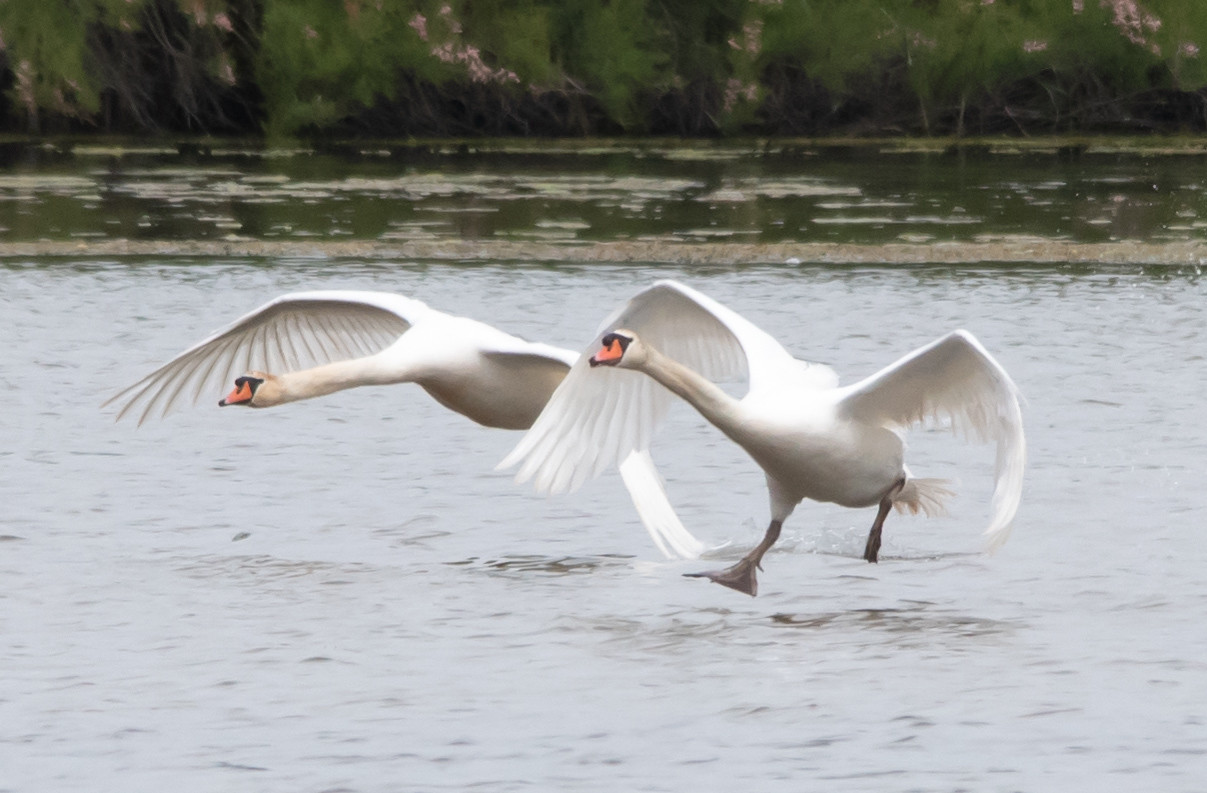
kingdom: Animalia
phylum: Chordata
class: Aves
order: Anseriformes
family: Anatidae
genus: Cygnus
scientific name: Cygnus olor
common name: Mute swan
